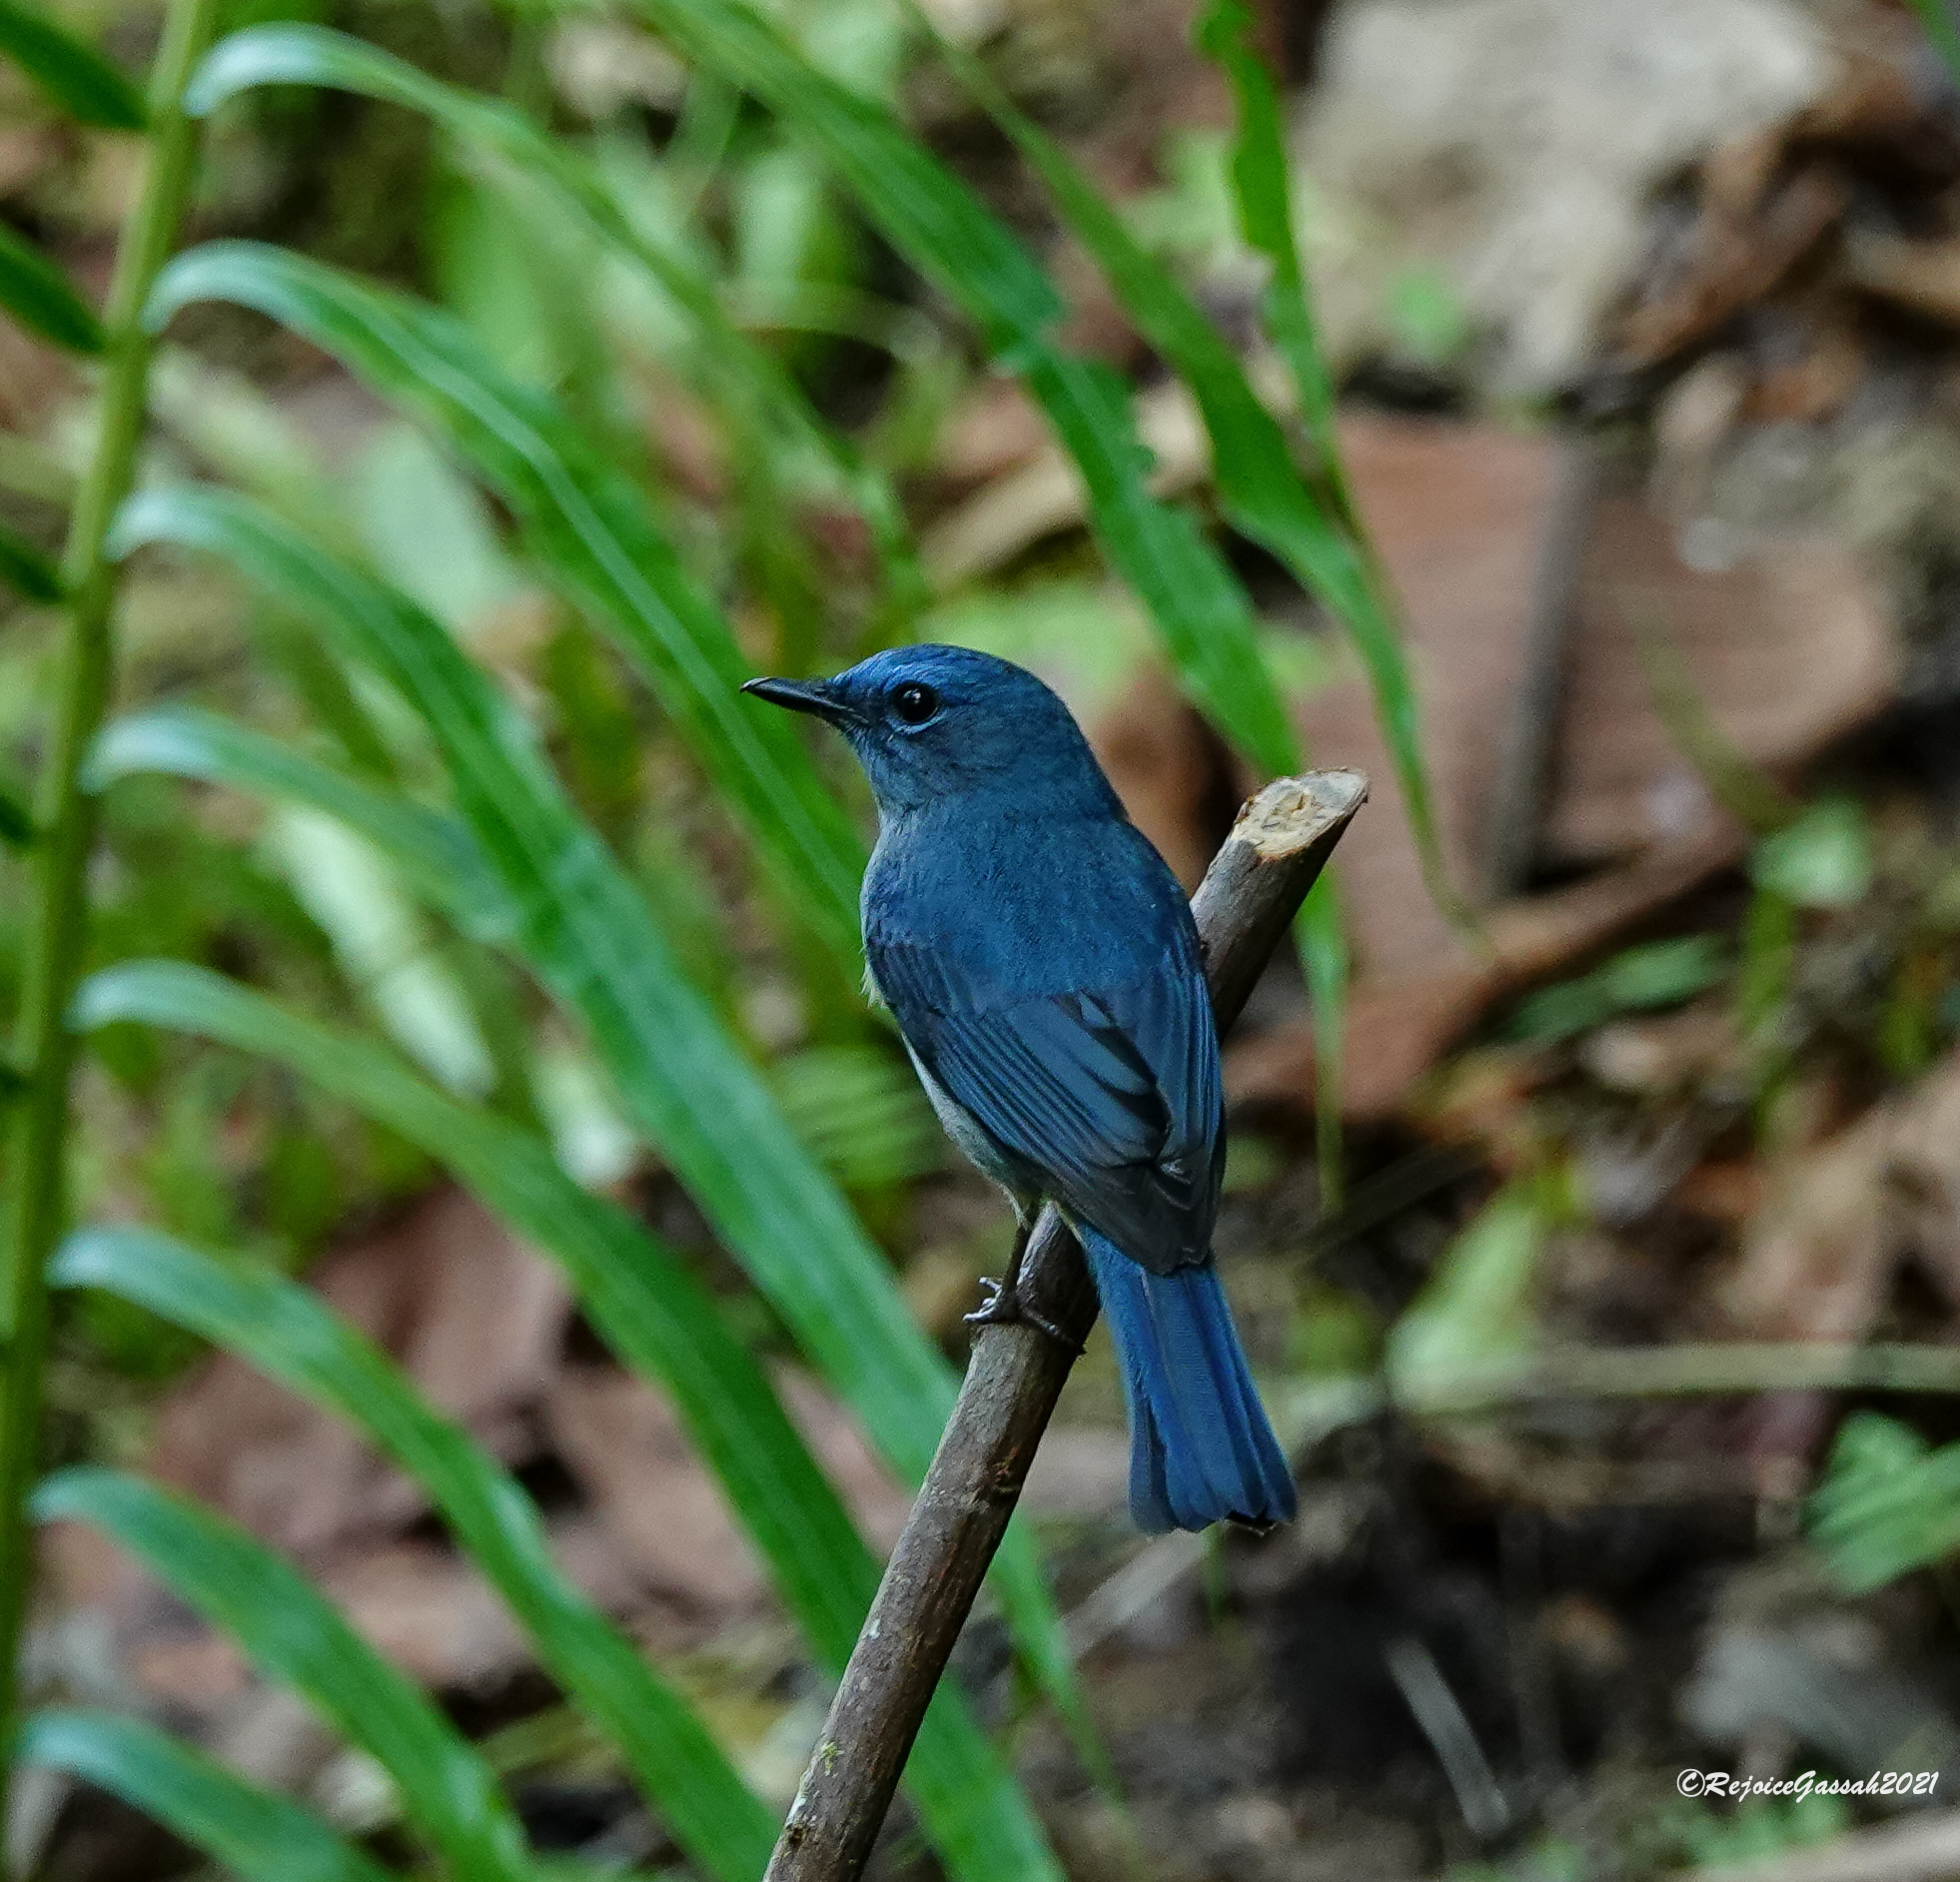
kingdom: Animalia
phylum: Chordata
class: Aves
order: Passeriformes
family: Muscicapidae
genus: Cyornis
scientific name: Cyornis unicolor
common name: Pale blue flycatcher
